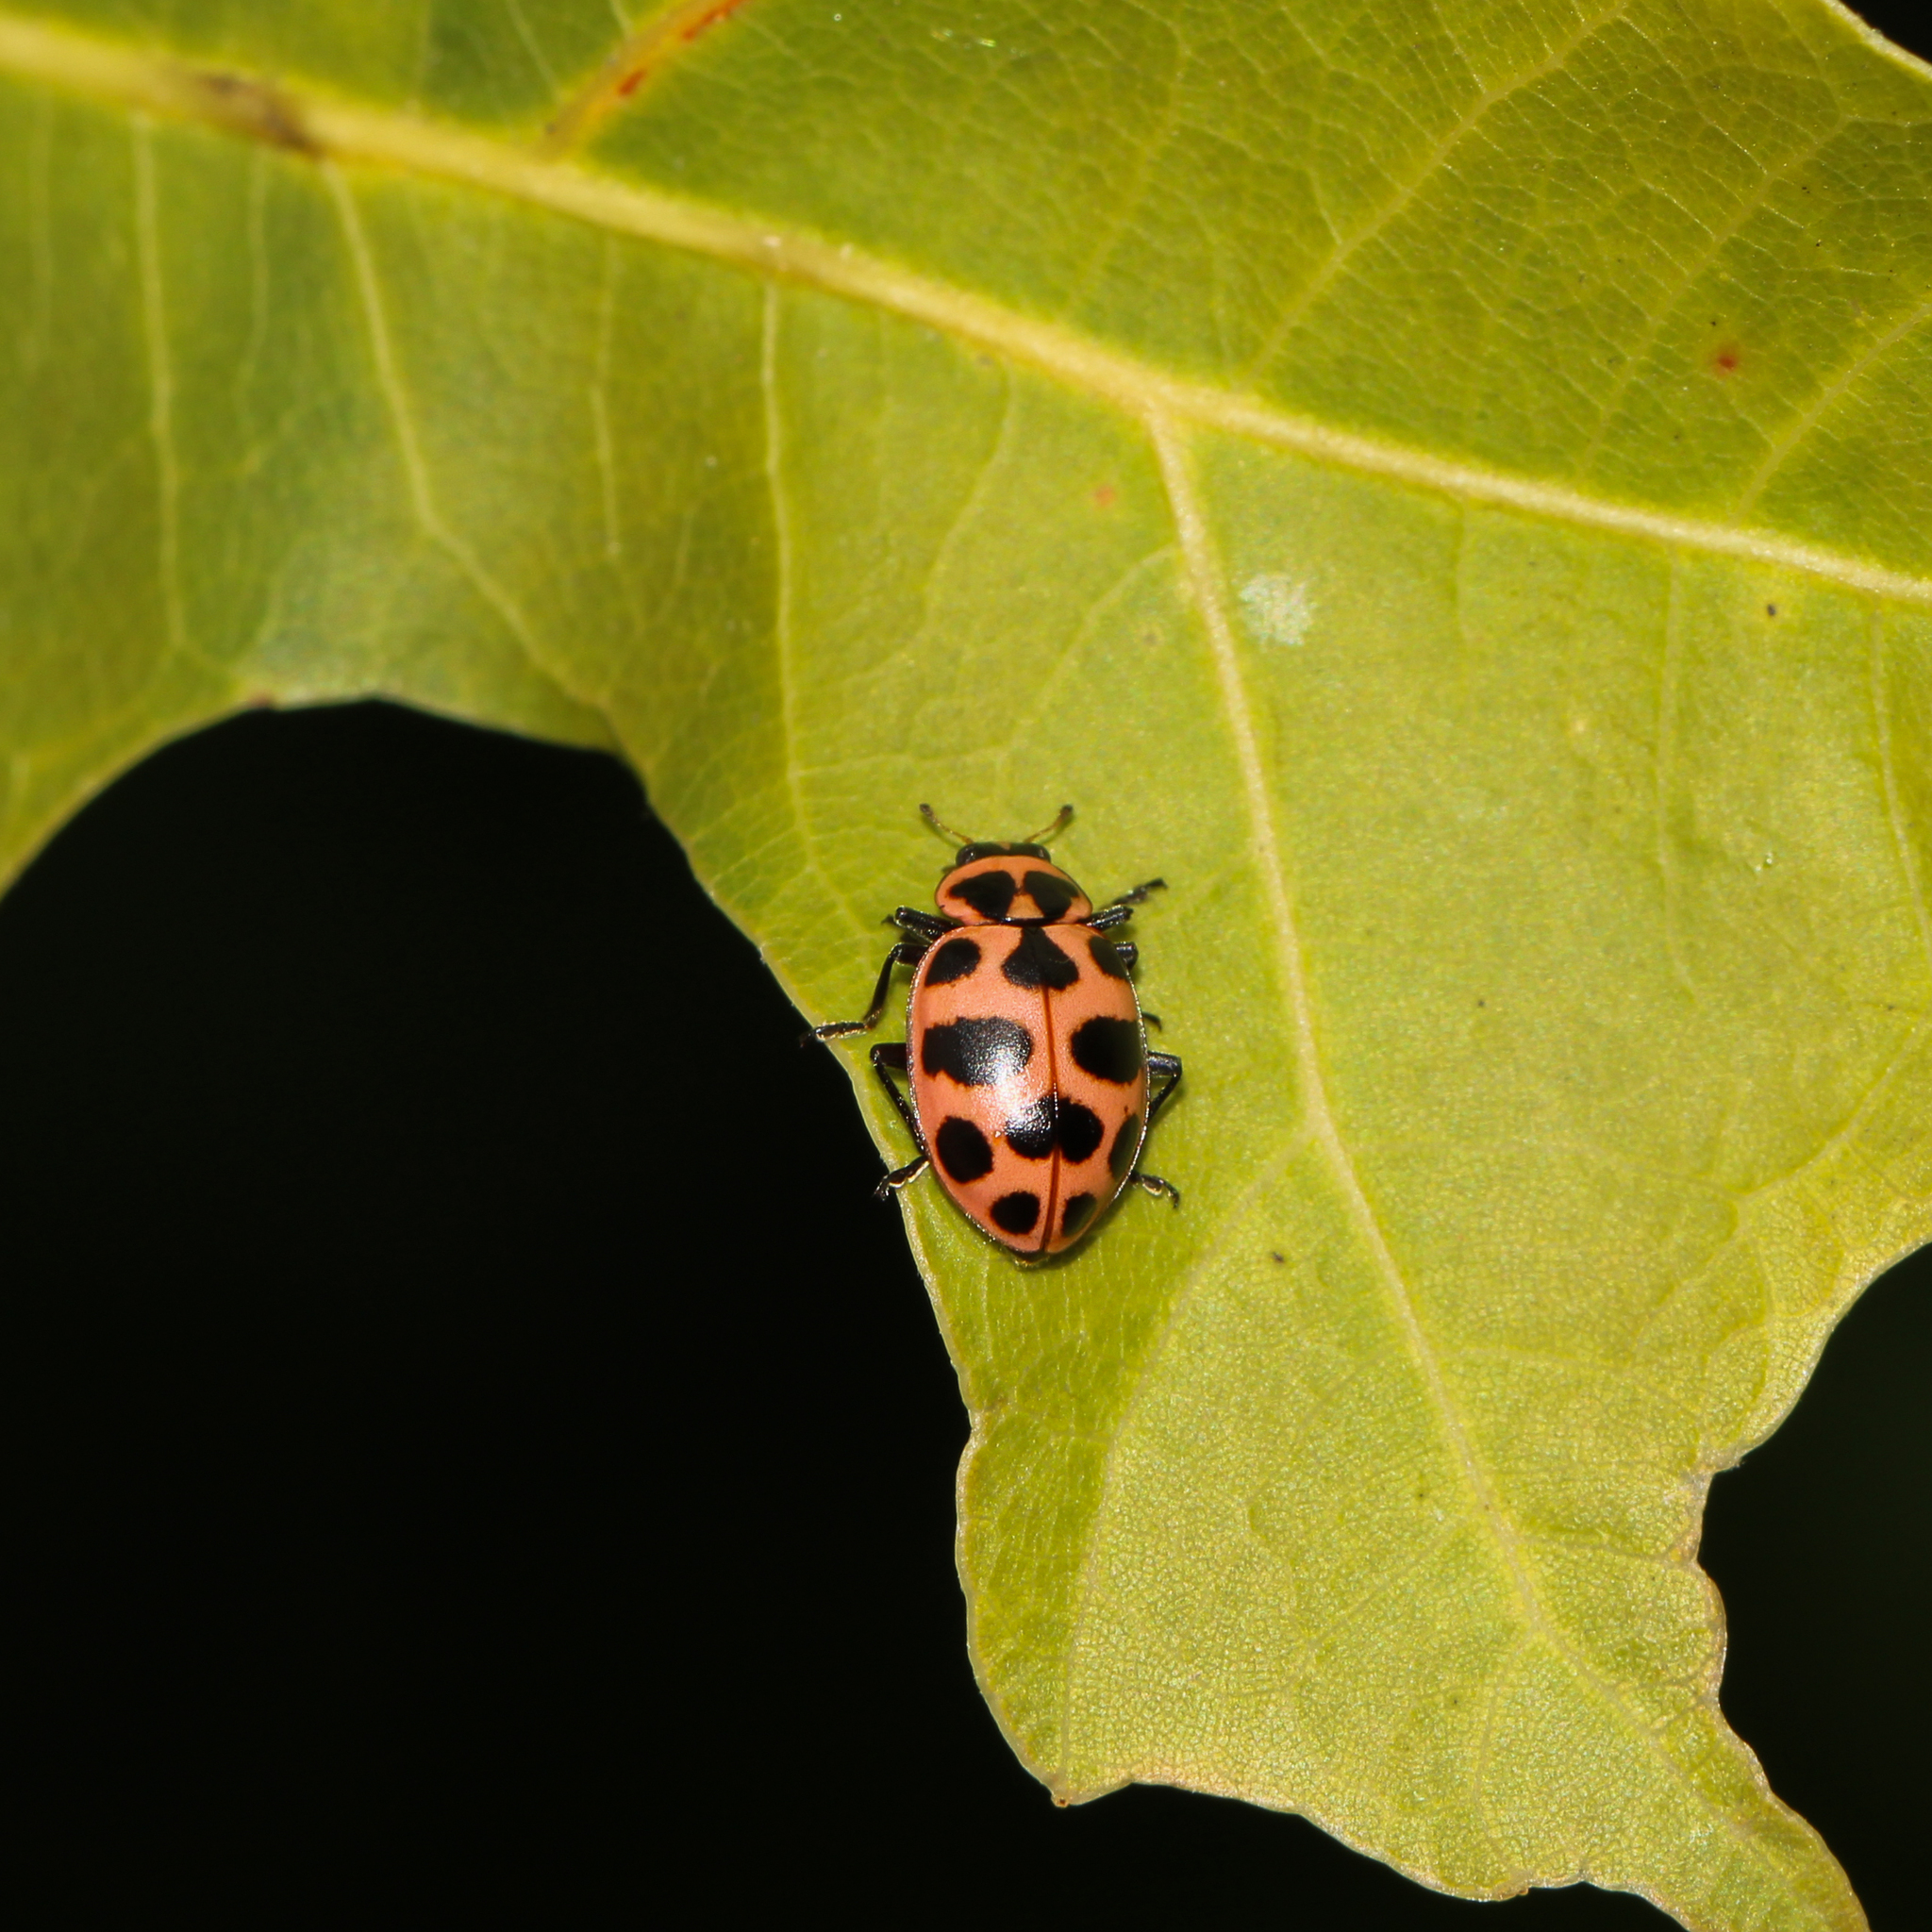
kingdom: Animalia
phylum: Arthropoda
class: Insecta
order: Coleoptera
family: Coccinellidae
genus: Coleomegilla
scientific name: Coleomegilla maculata
